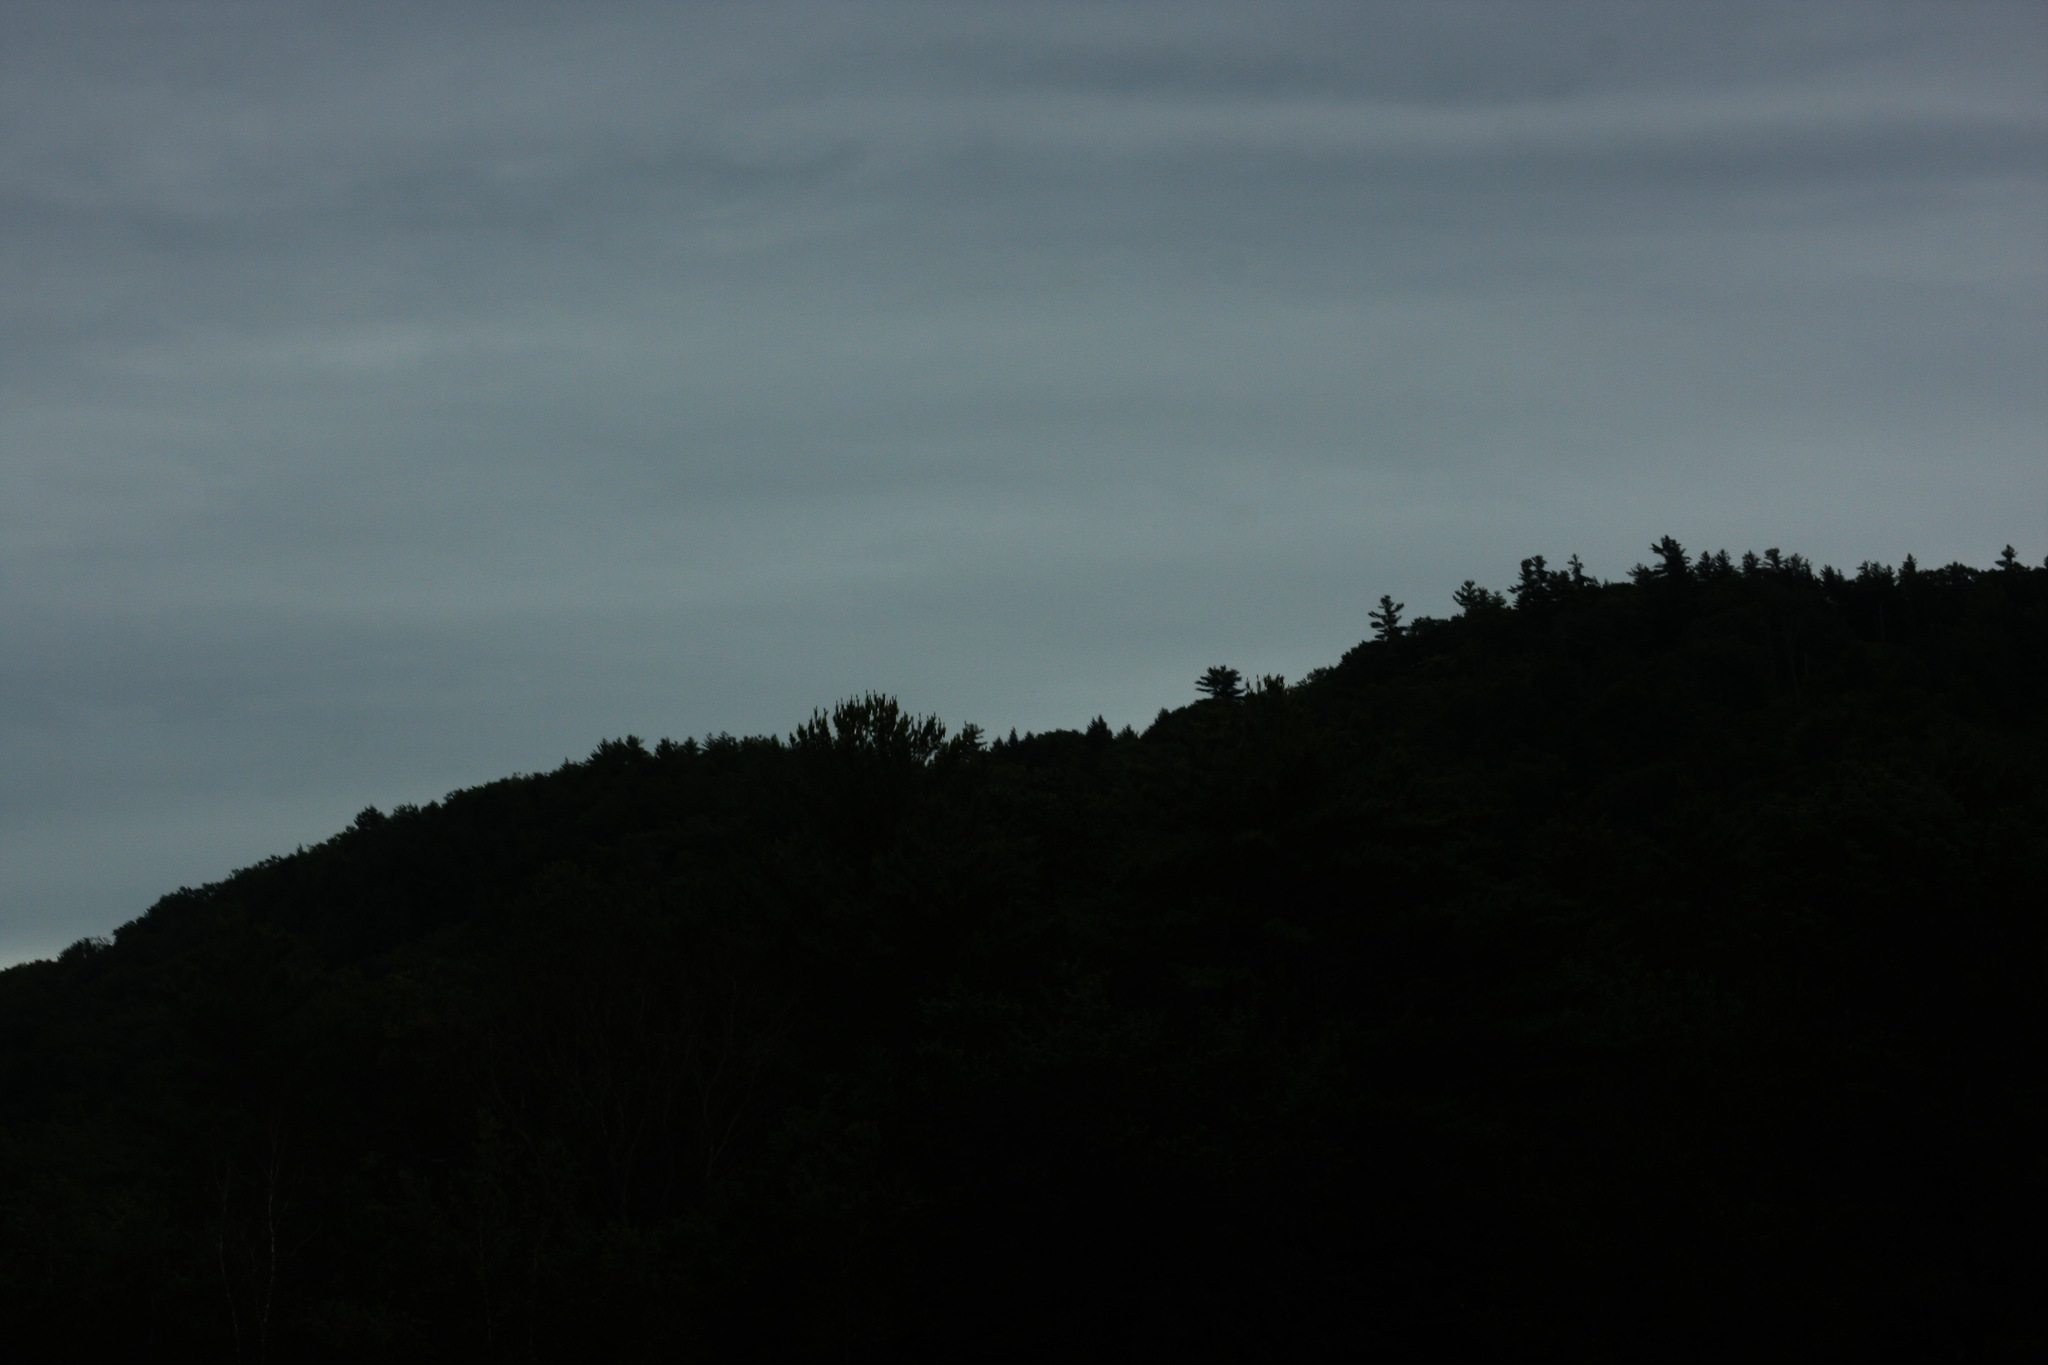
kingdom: Plantae
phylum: Tracheophyta
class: Pinopsida
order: Pinales
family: Pinaceae
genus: Pinus
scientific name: Pinus strobus
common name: Weymouth pine
